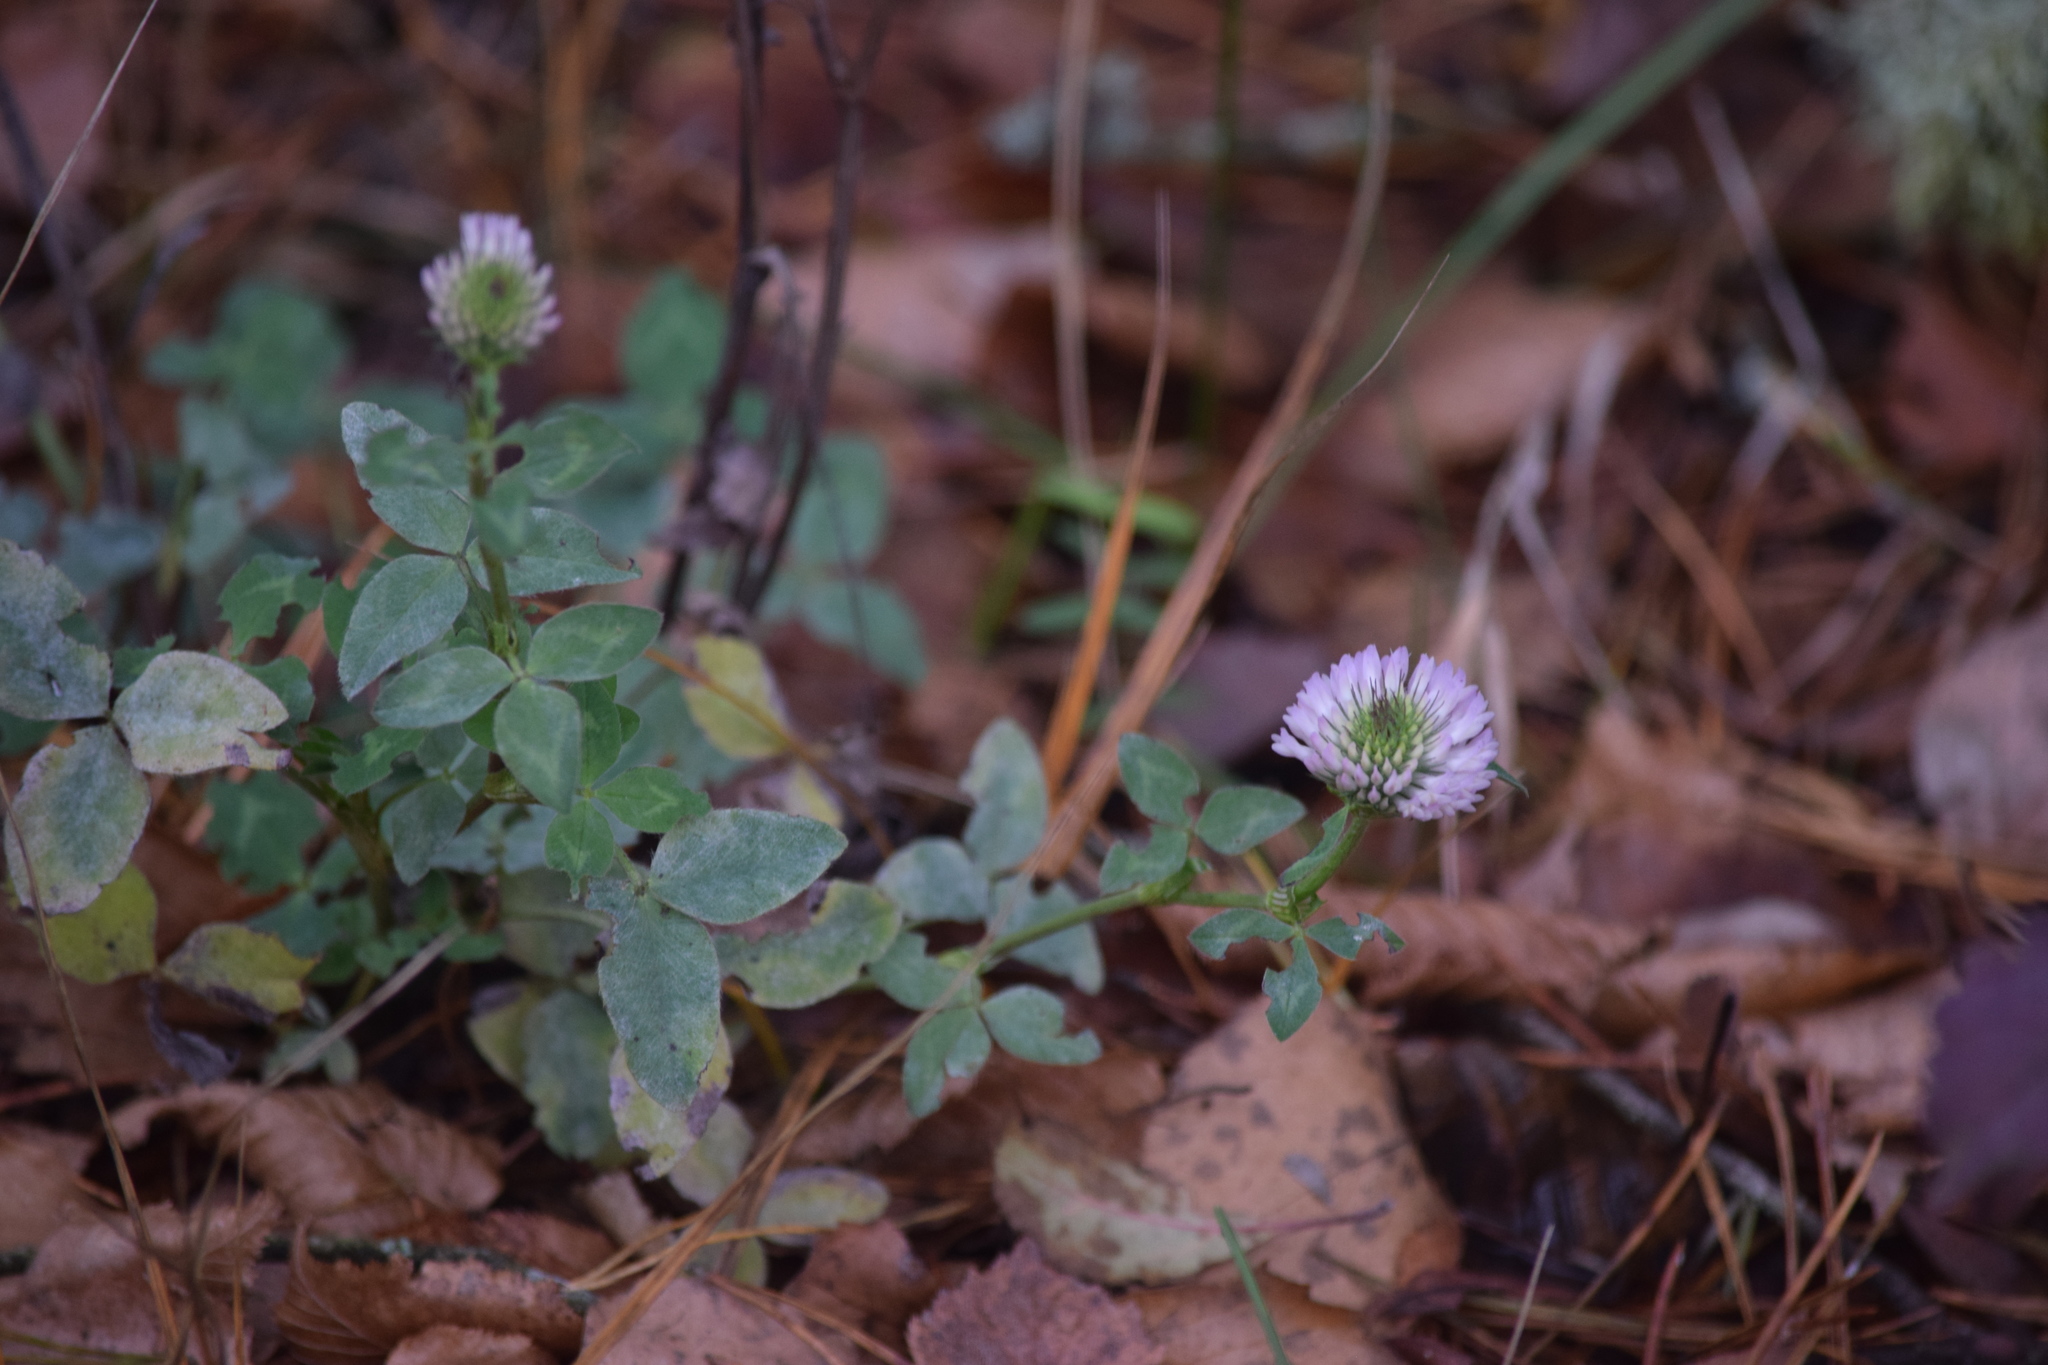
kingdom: Plantae
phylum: Tracheophyta
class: Magnoliopsida
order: Fabales
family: Fabaceae
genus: Trifolium
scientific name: Trifolium pratense
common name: Red clover
